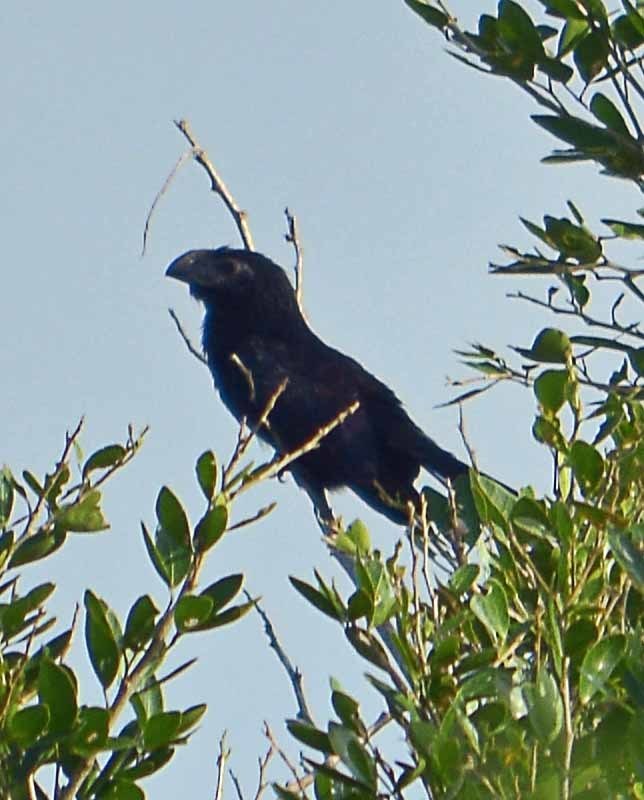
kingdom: Animalia
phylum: Chordata
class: Aves
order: Cuculiformes
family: Cuculidae
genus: Crotophaga
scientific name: Crotophaga sulcirostris
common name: Groove-billed ani
